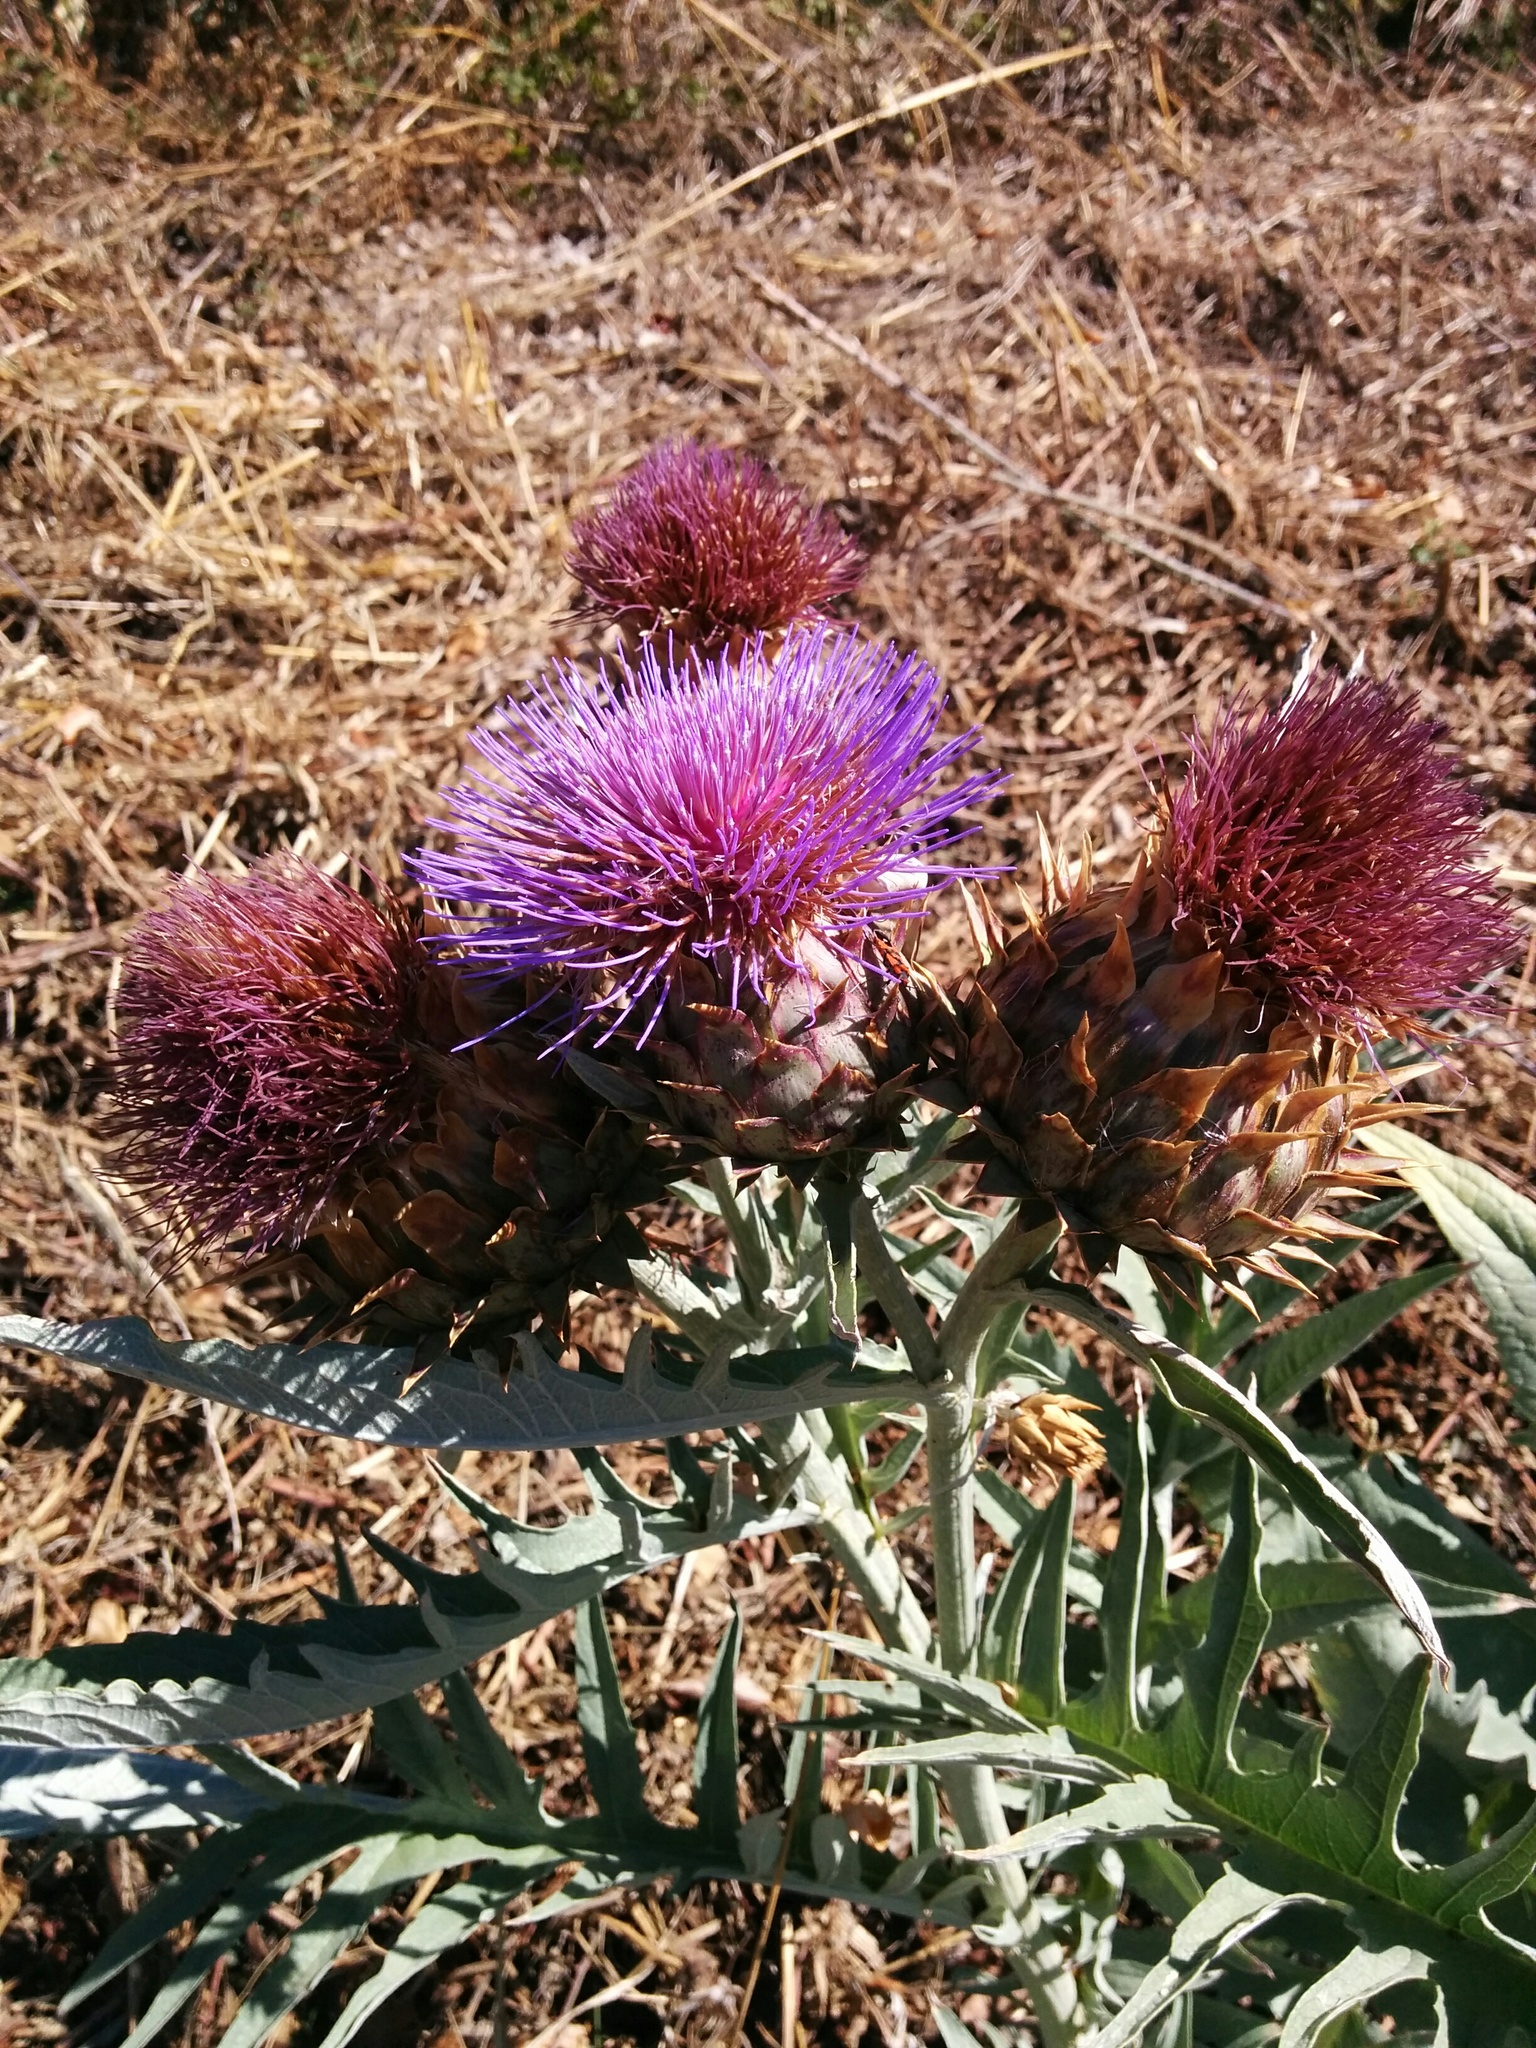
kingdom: Plantae
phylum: Tracheophyta
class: Magnoliopsida
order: Asterales
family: Asteraceae
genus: Cynara
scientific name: Cynara cardunculus
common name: Globe artichoke
